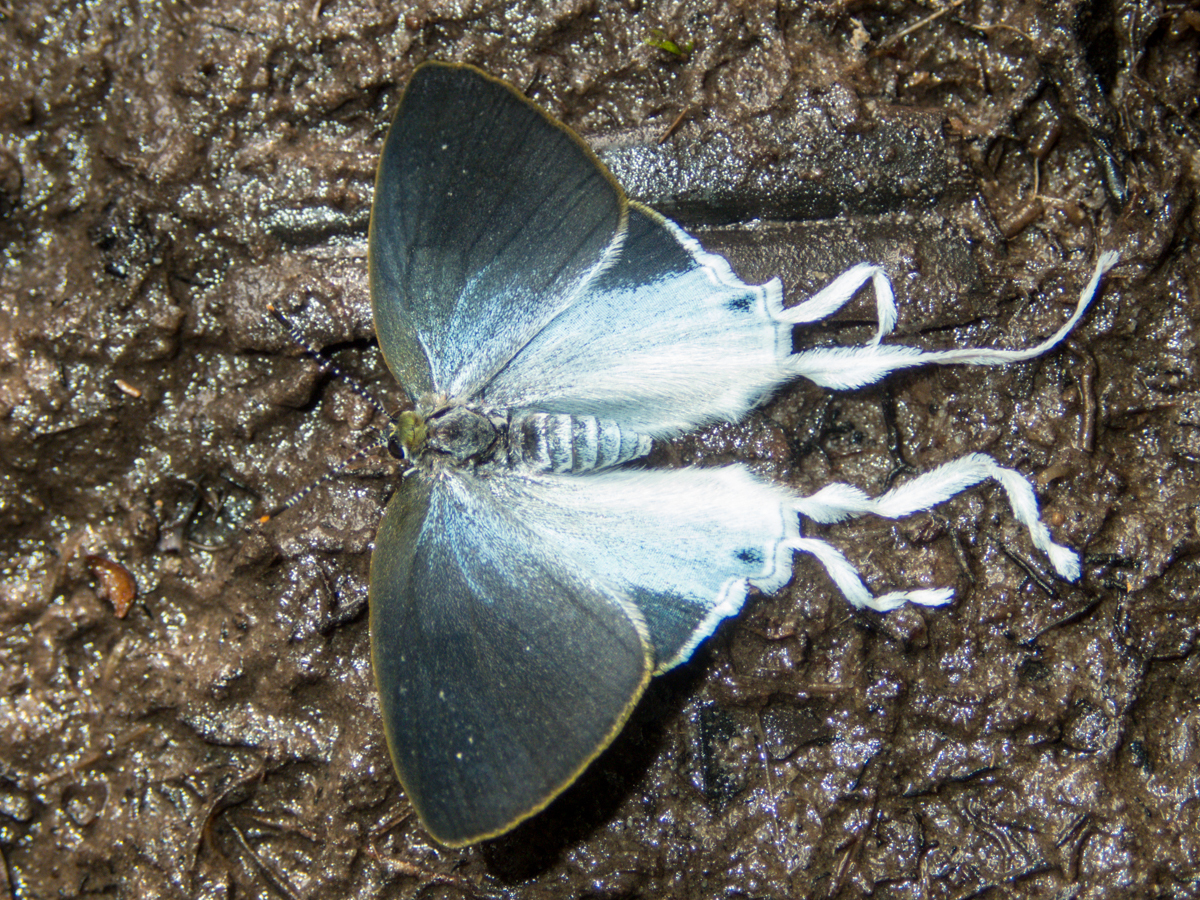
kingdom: Animalia
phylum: Arthropoda
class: Insecta
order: Lepidoptera
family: Lycaenidae
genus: Zeltus
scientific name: Zeltus amasa
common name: Fluffy tit
